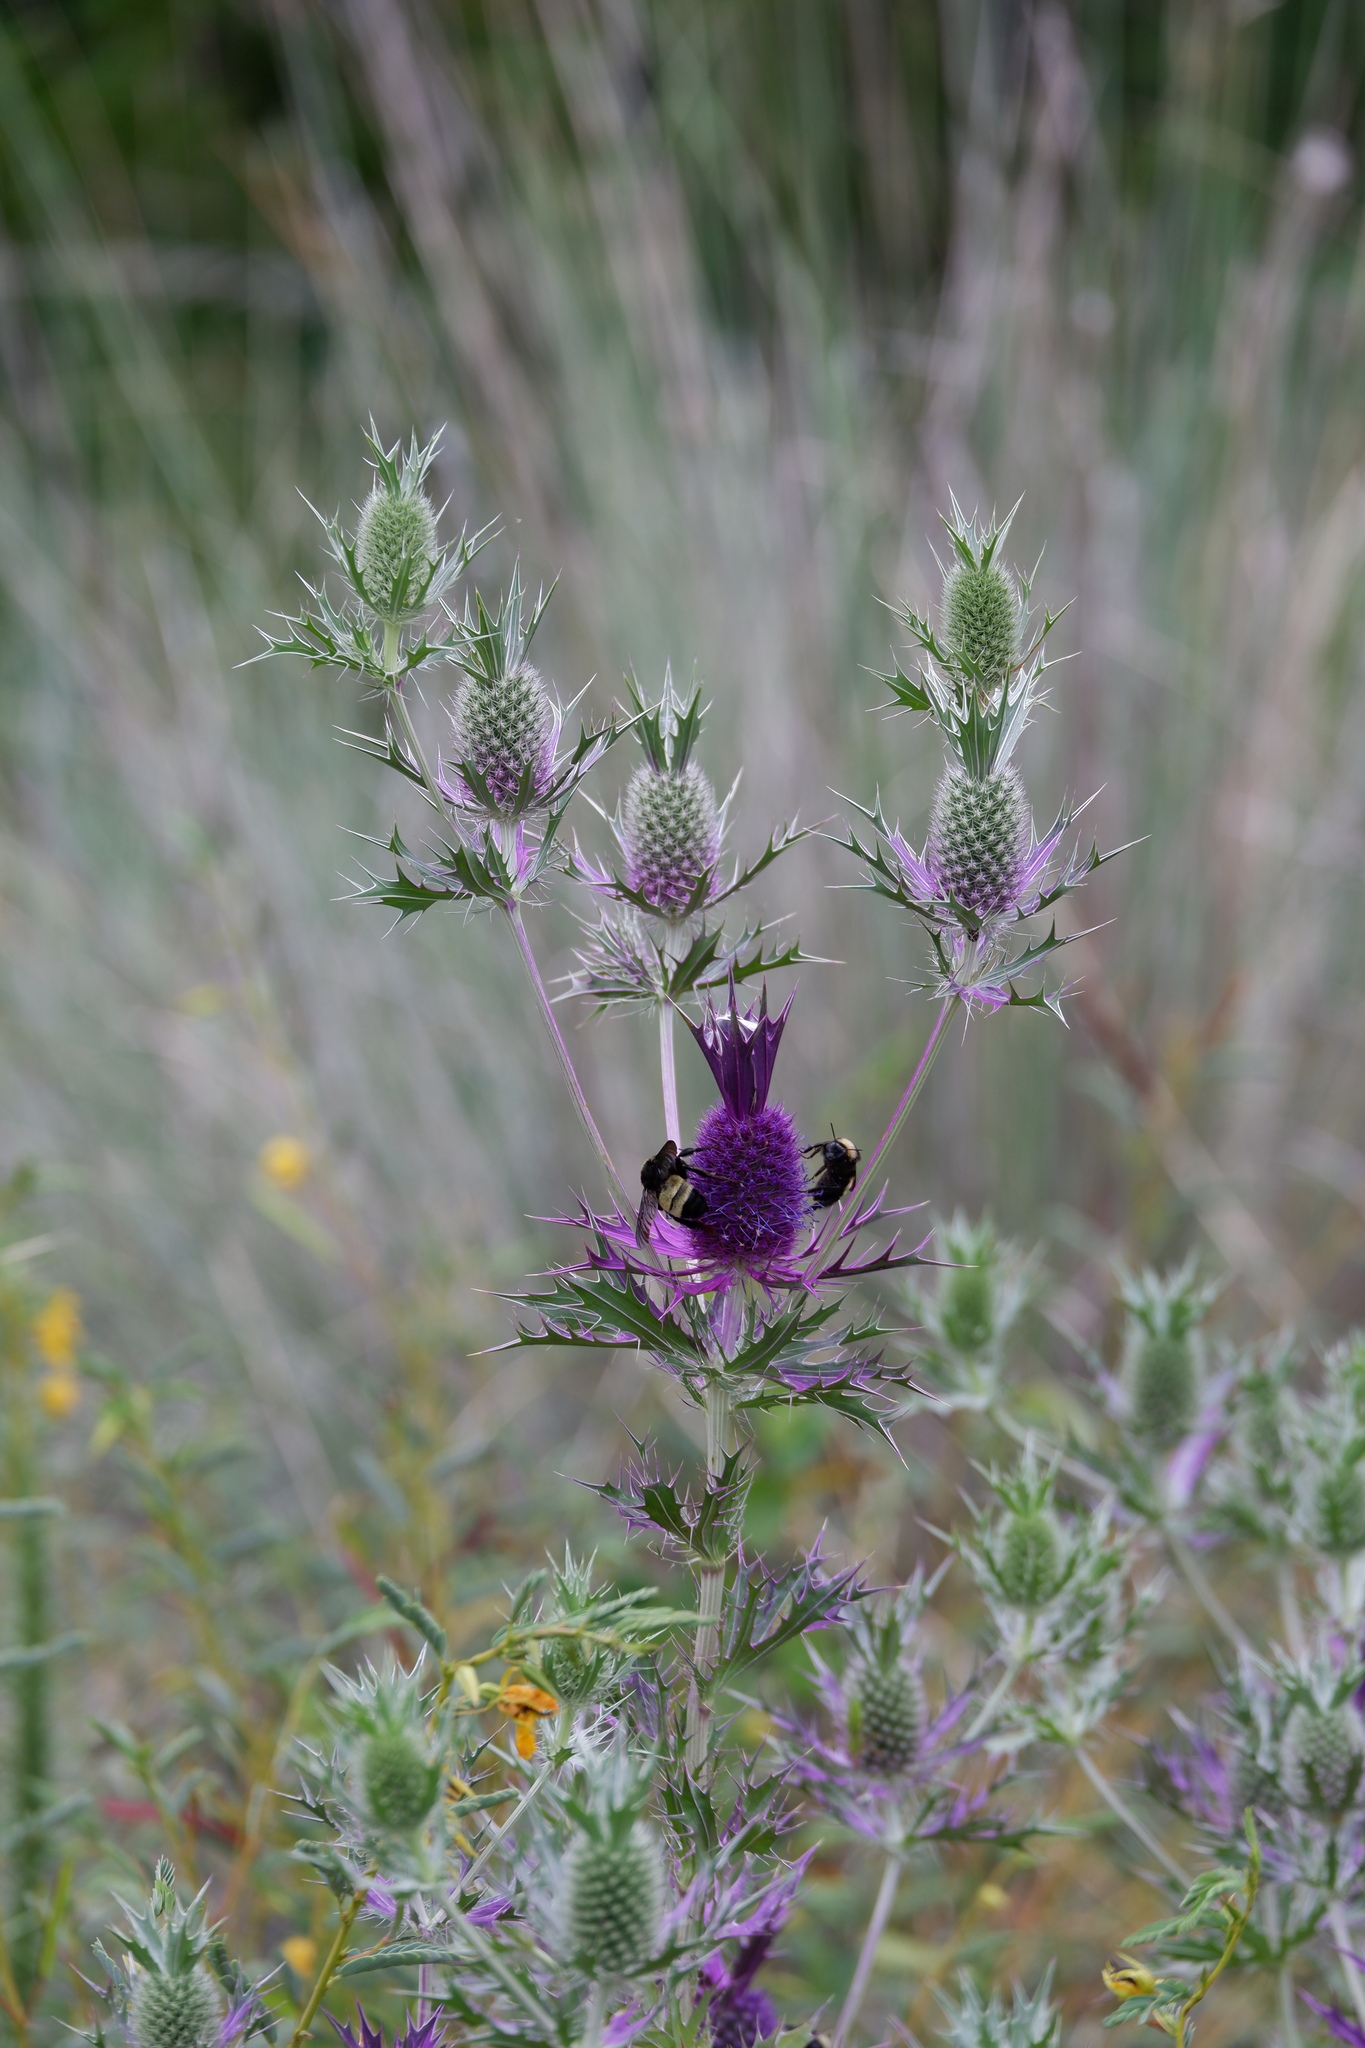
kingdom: Animalia
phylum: Arthropoda
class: Insecta
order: Hymenoptera
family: Apidae
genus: Bombus
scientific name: Bombus pensylvanicus
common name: Bumble bee
